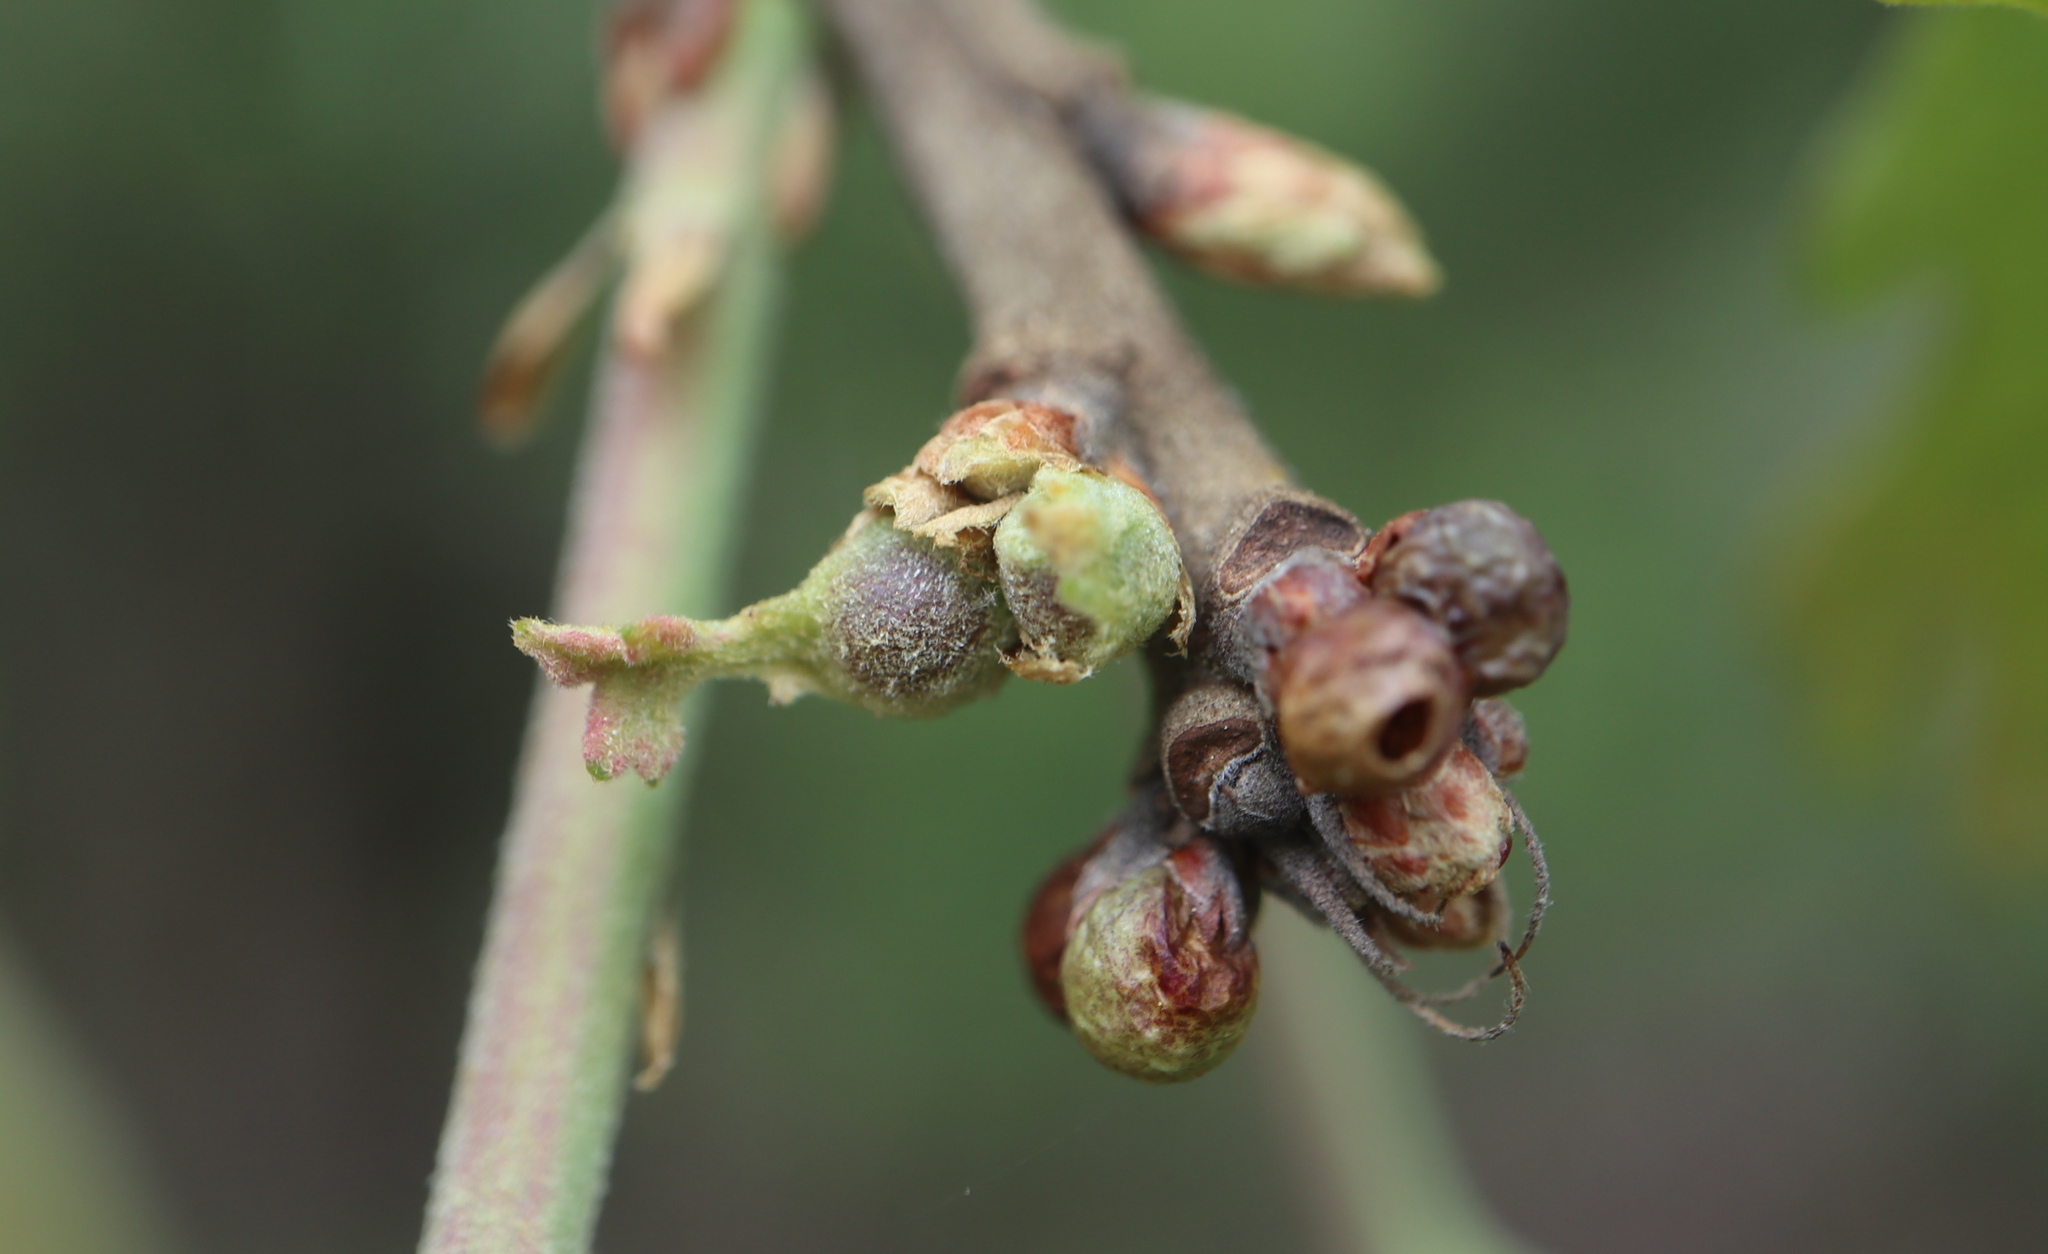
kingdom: Animalia
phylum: Arthropoda
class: Insecta
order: Hymenoptera
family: Cynipidae
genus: Andricus
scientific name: Andricus
